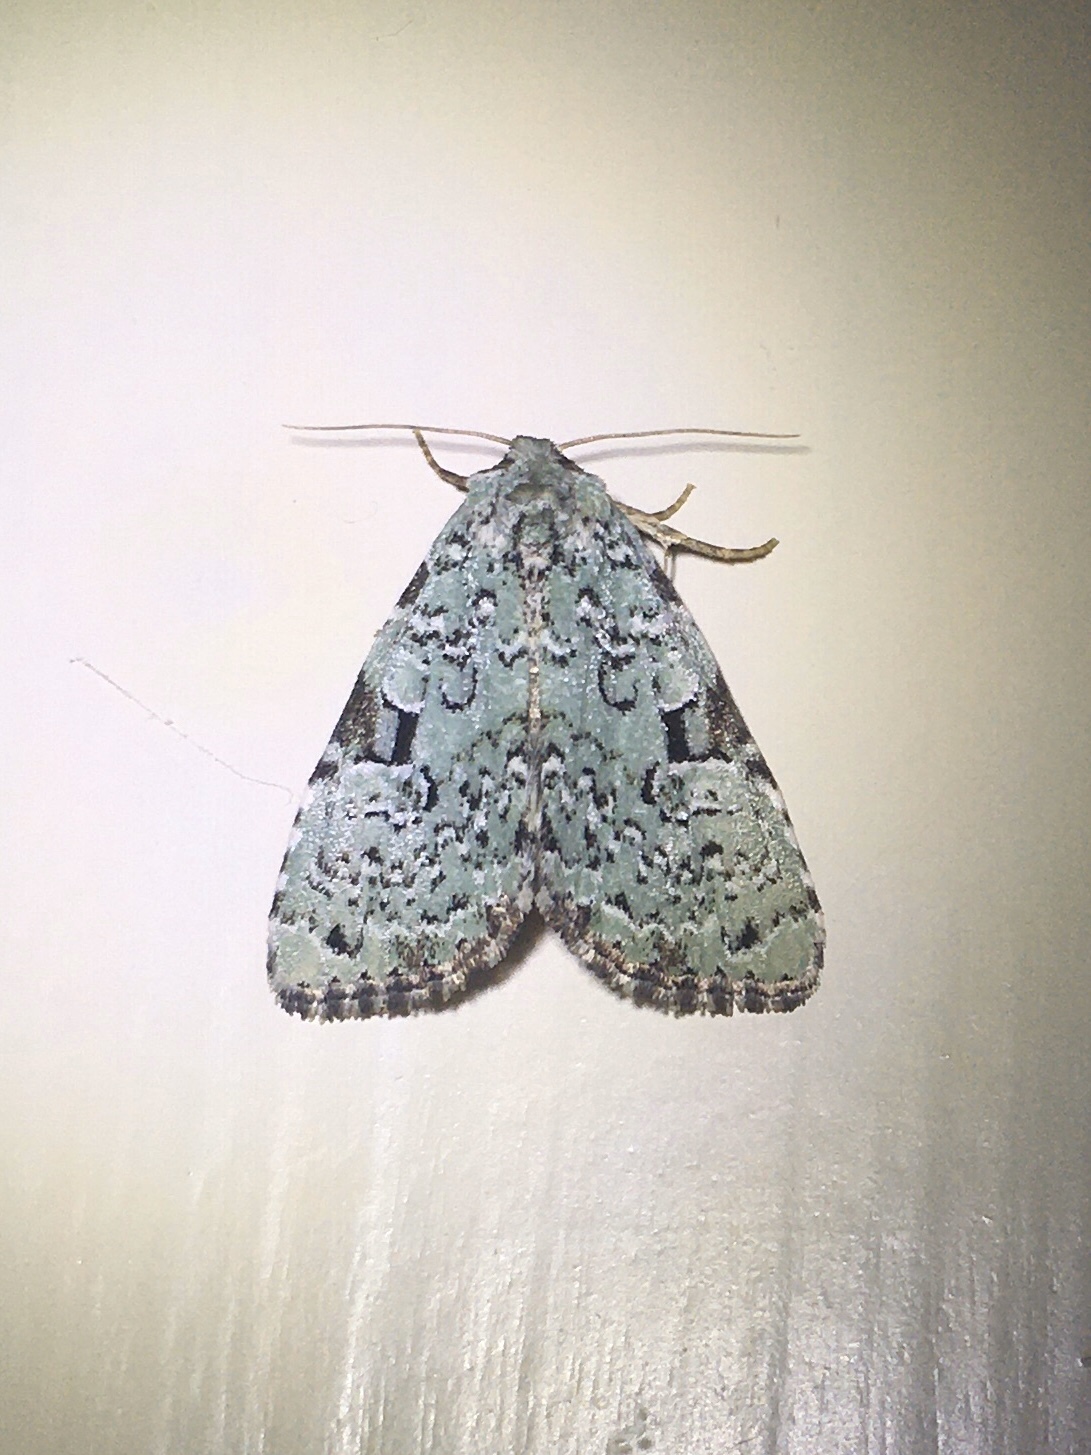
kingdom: Animalia
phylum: Arthropoda
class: Insecta
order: Lepidoptera
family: Noctuidae
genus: Leuconycta
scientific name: Leuconycta diphteroides
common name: Green leuconycta moth
